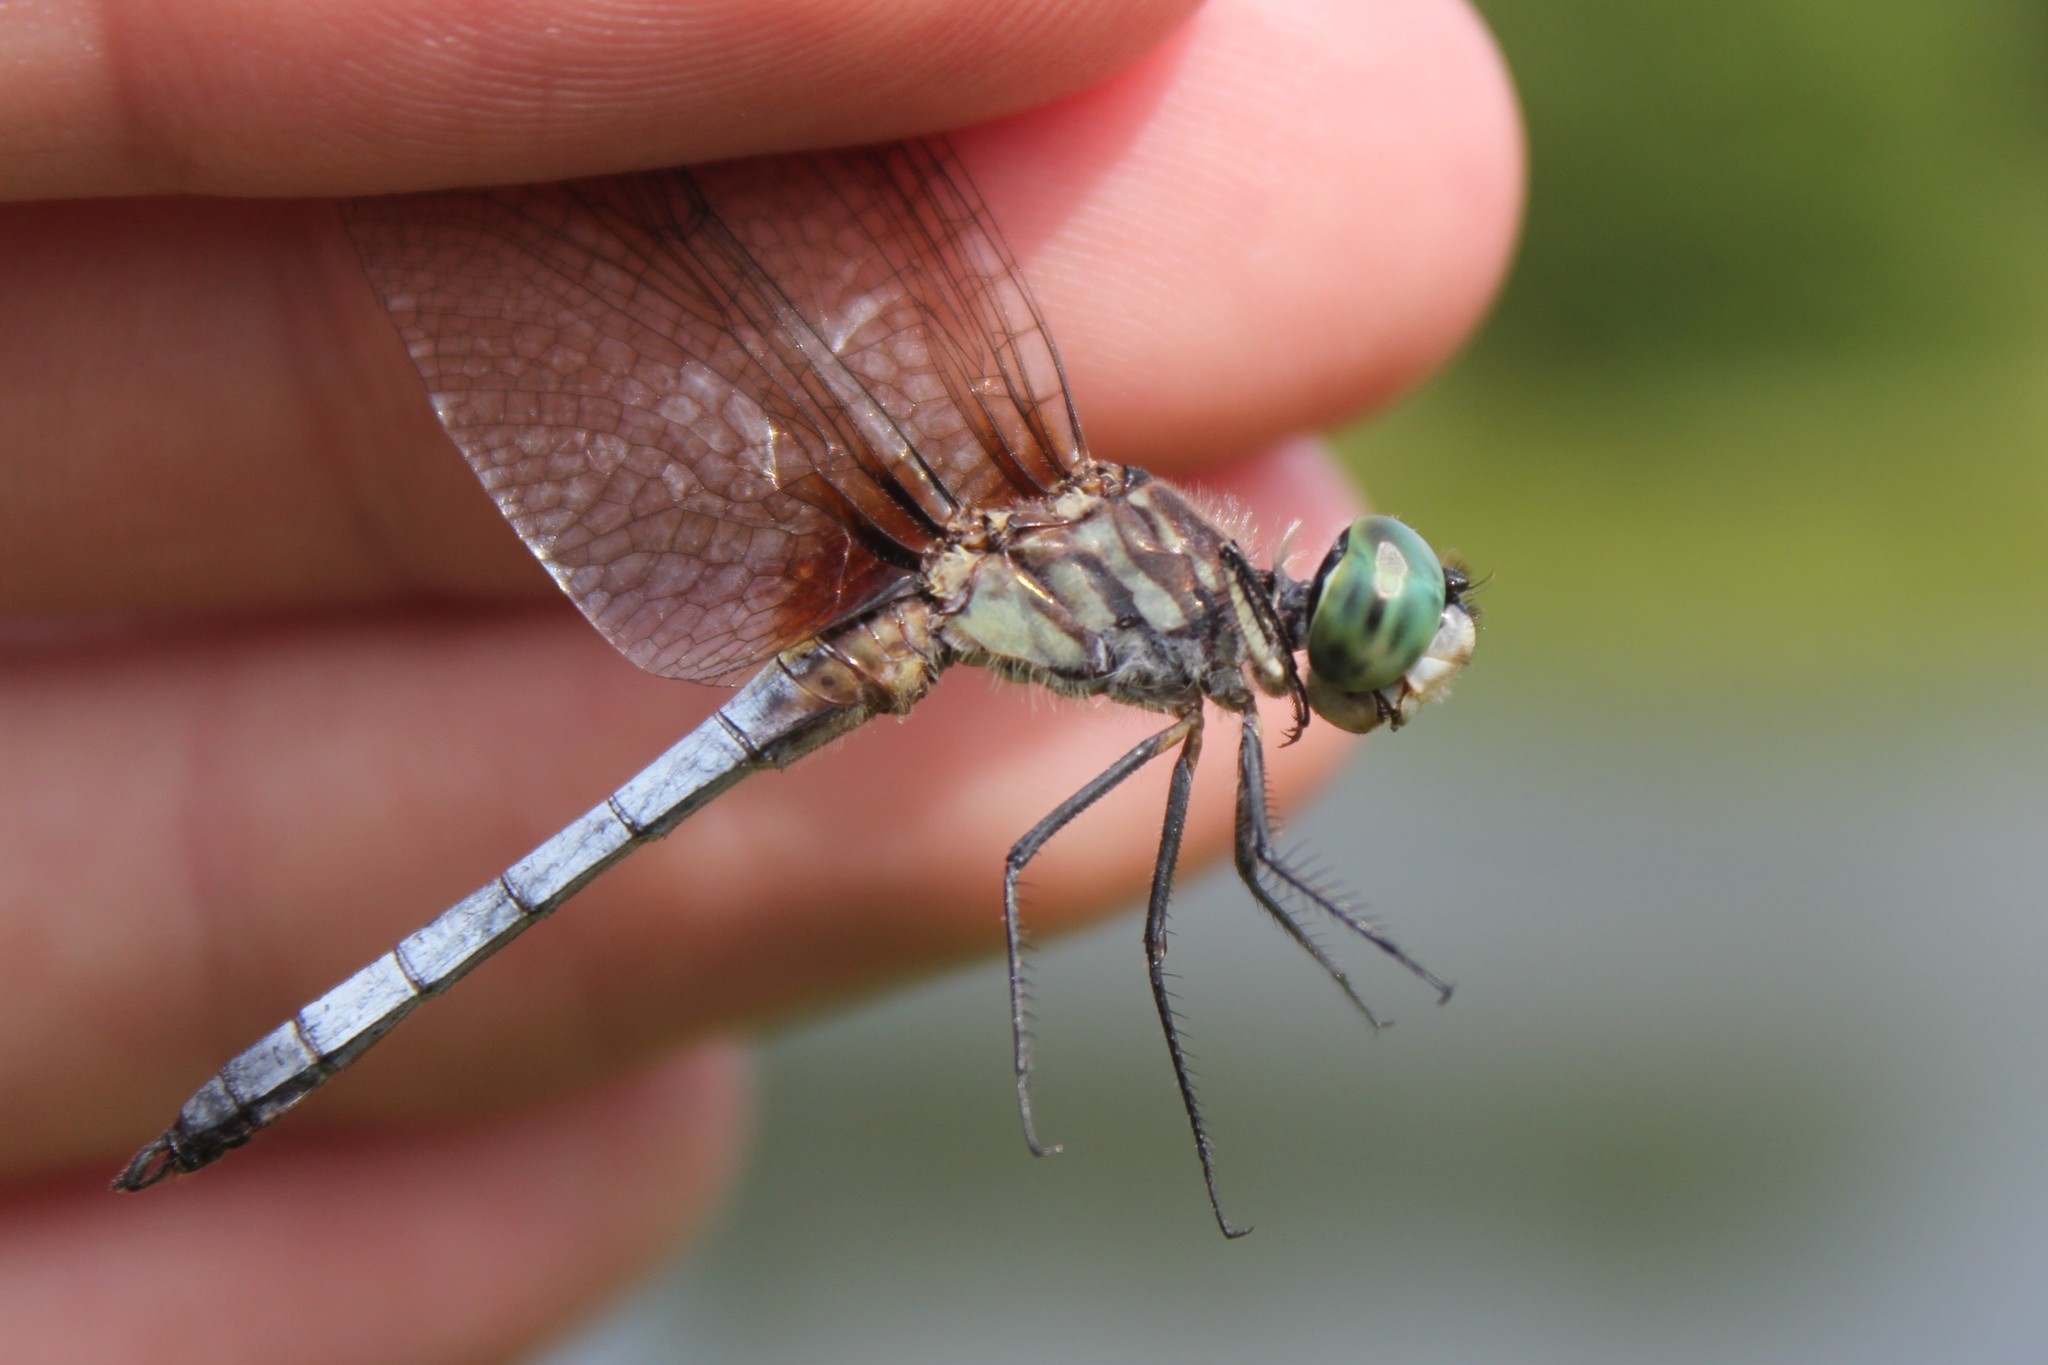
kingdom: Animalia
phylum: Arthropoda
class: Insecta
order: Odonata
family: Libellulidae
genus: Pachydiplax
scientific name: Pachydiplax longipennis
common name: Blue dasher
